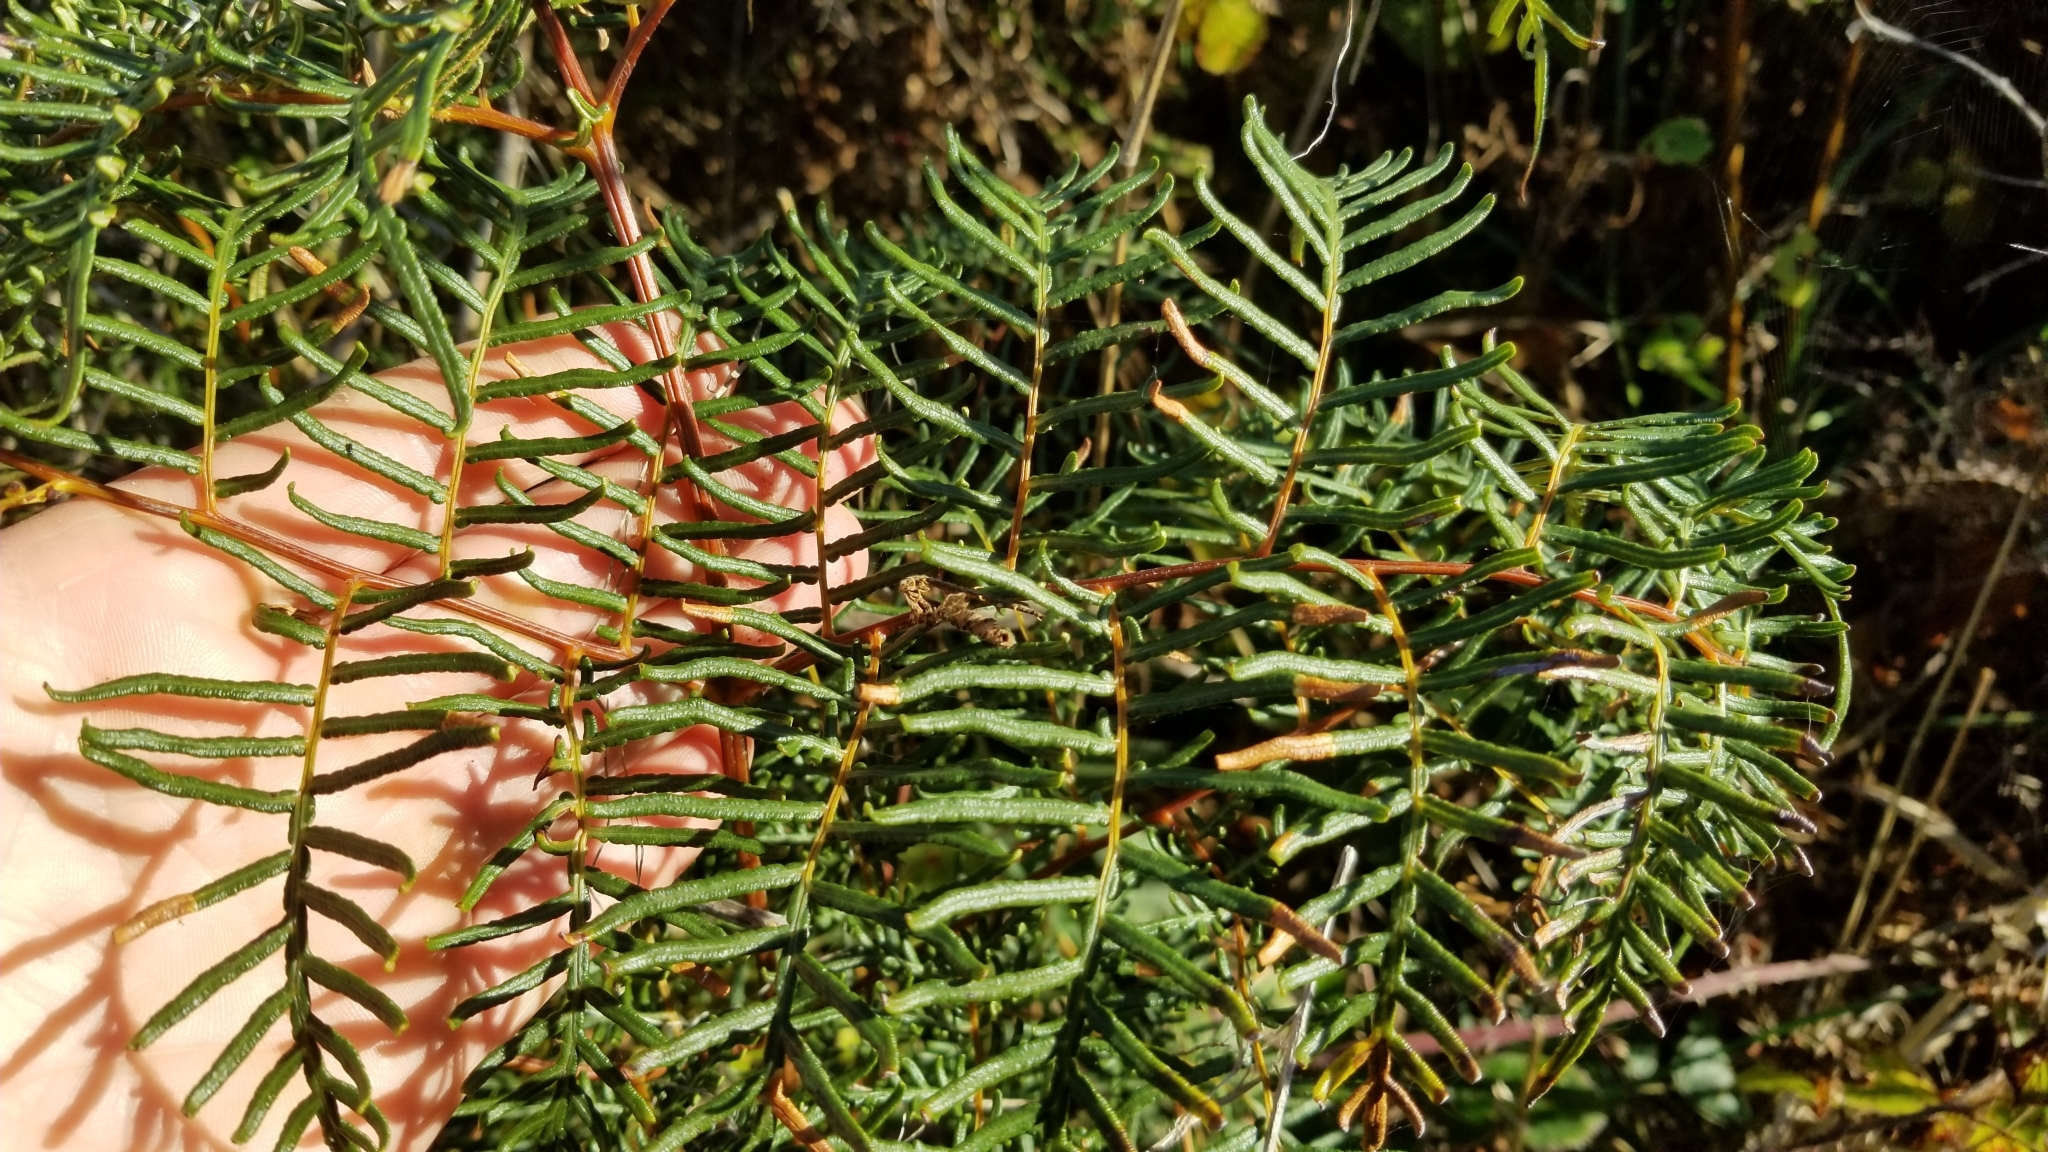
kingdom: Plantae
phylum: Tracheophyta
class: Polypodiopsida
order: Polypodiales
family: Dennstaedtiaceae
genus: Pteridium
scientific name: Pteridium esculentum
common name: Bracken fern
